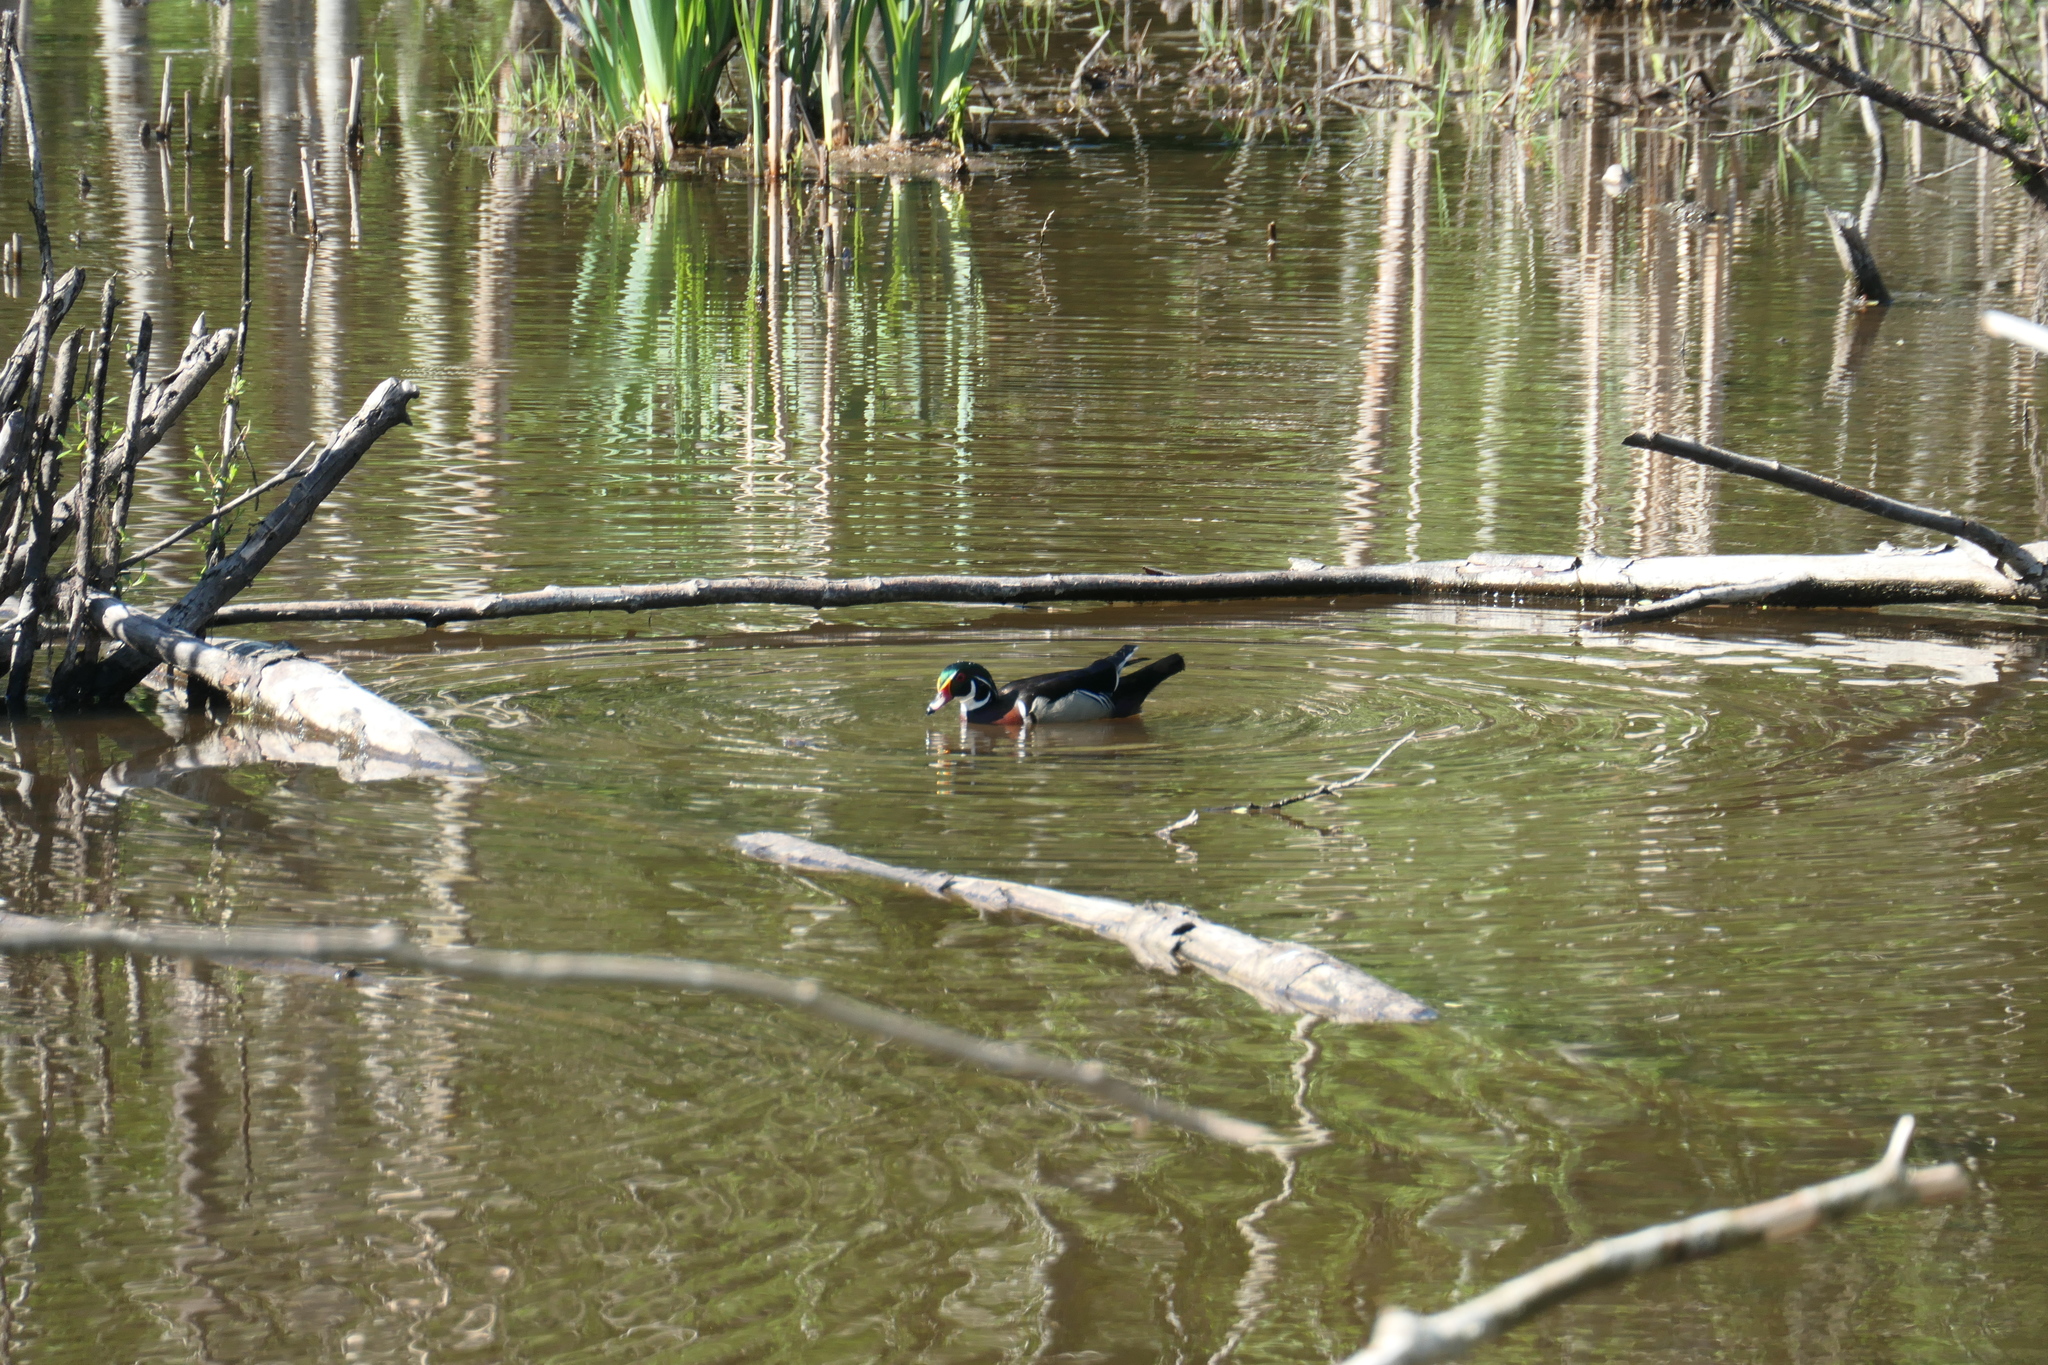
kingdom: Animalia
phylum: Chordata
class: Aves
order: Anseriformes
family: Anatidae
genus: Aix
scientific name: Aix sponsa
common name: Wood duck
